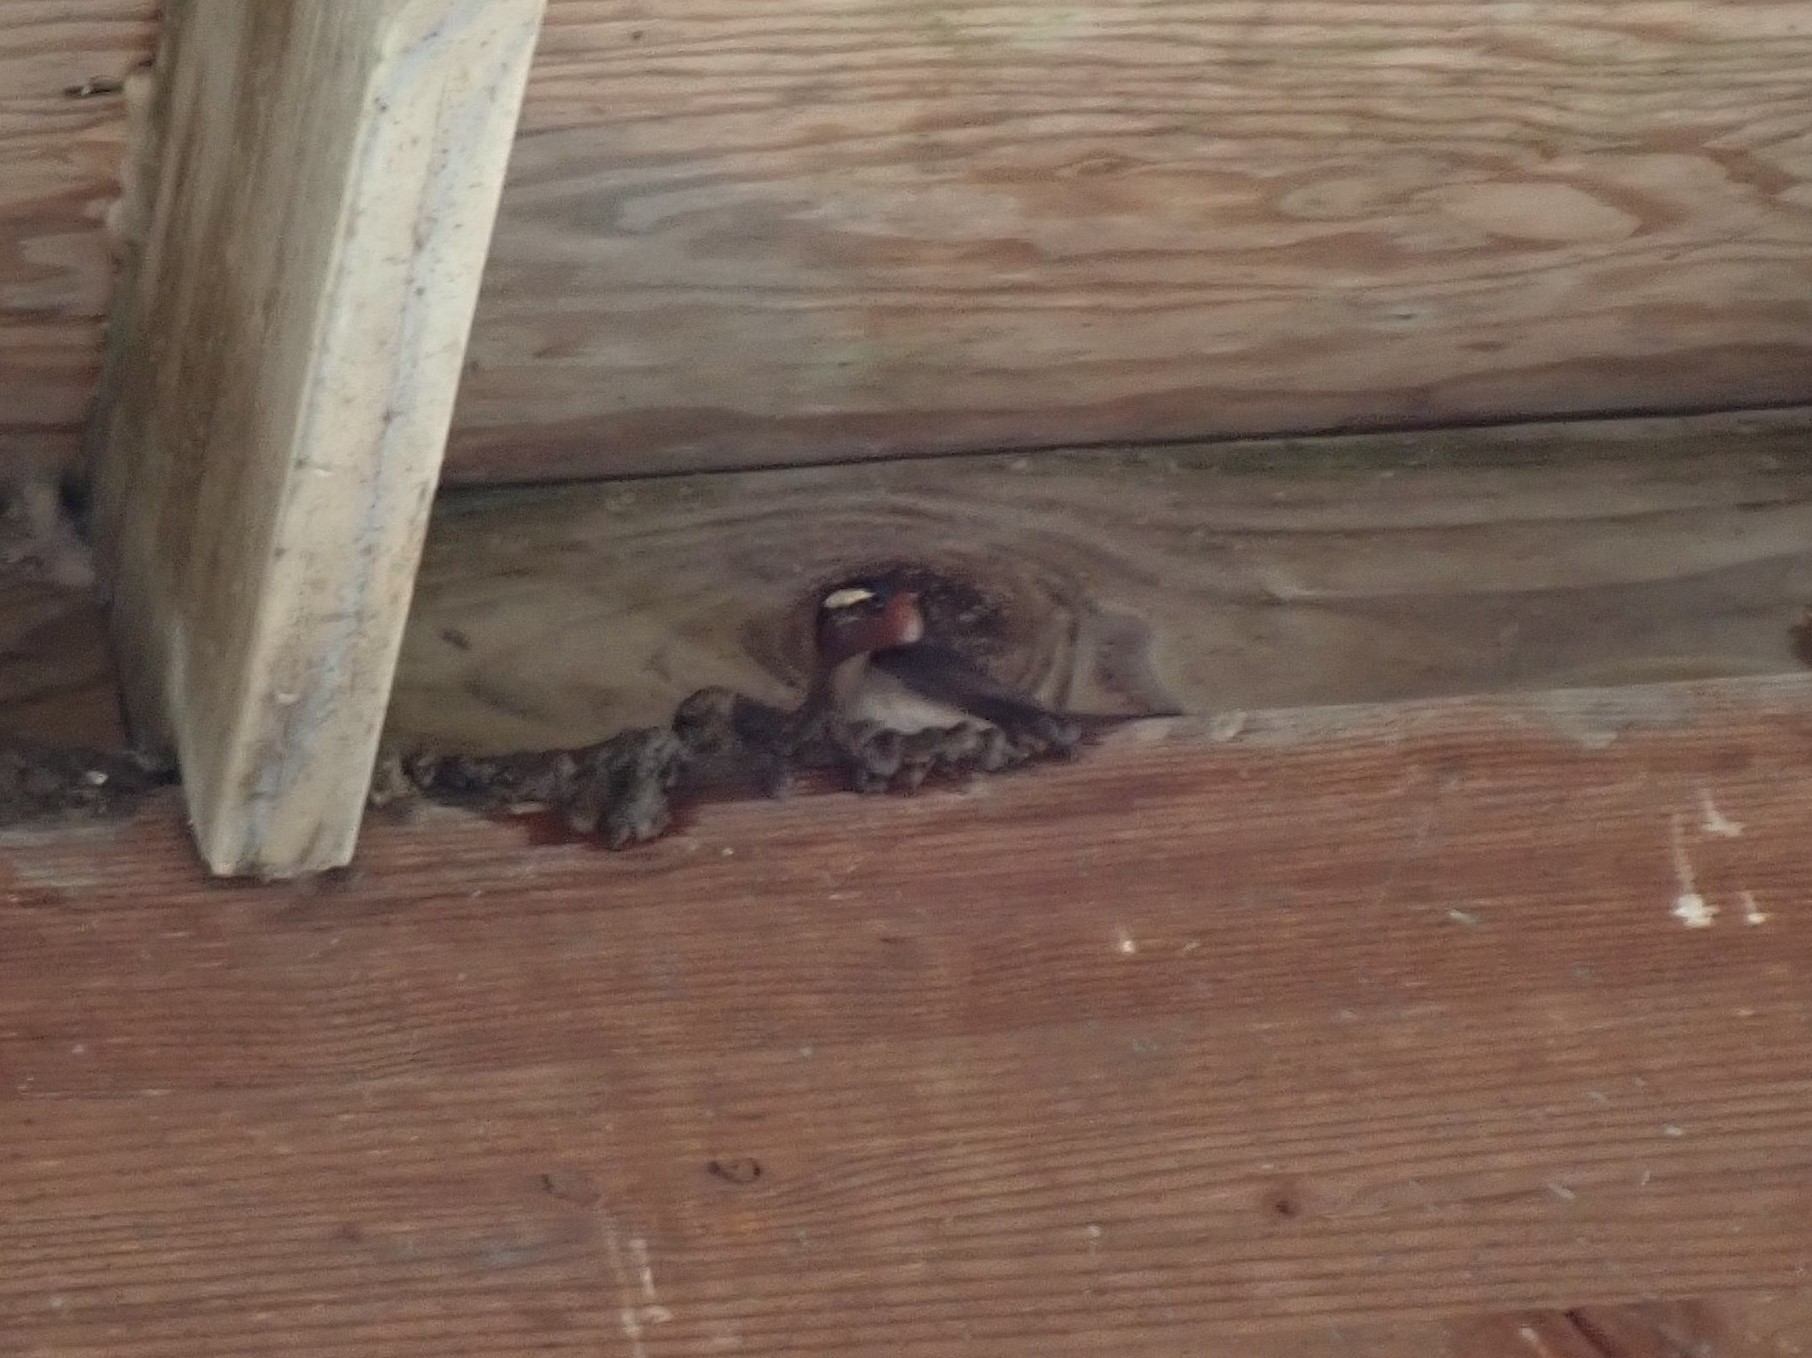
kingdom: Animalia
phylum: Chordata
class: Aves
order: Passeriformes
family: Hirundinidae
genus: Petrochelidon
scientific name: Petrochelidon pyrrhonota
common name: American cliff swallow
